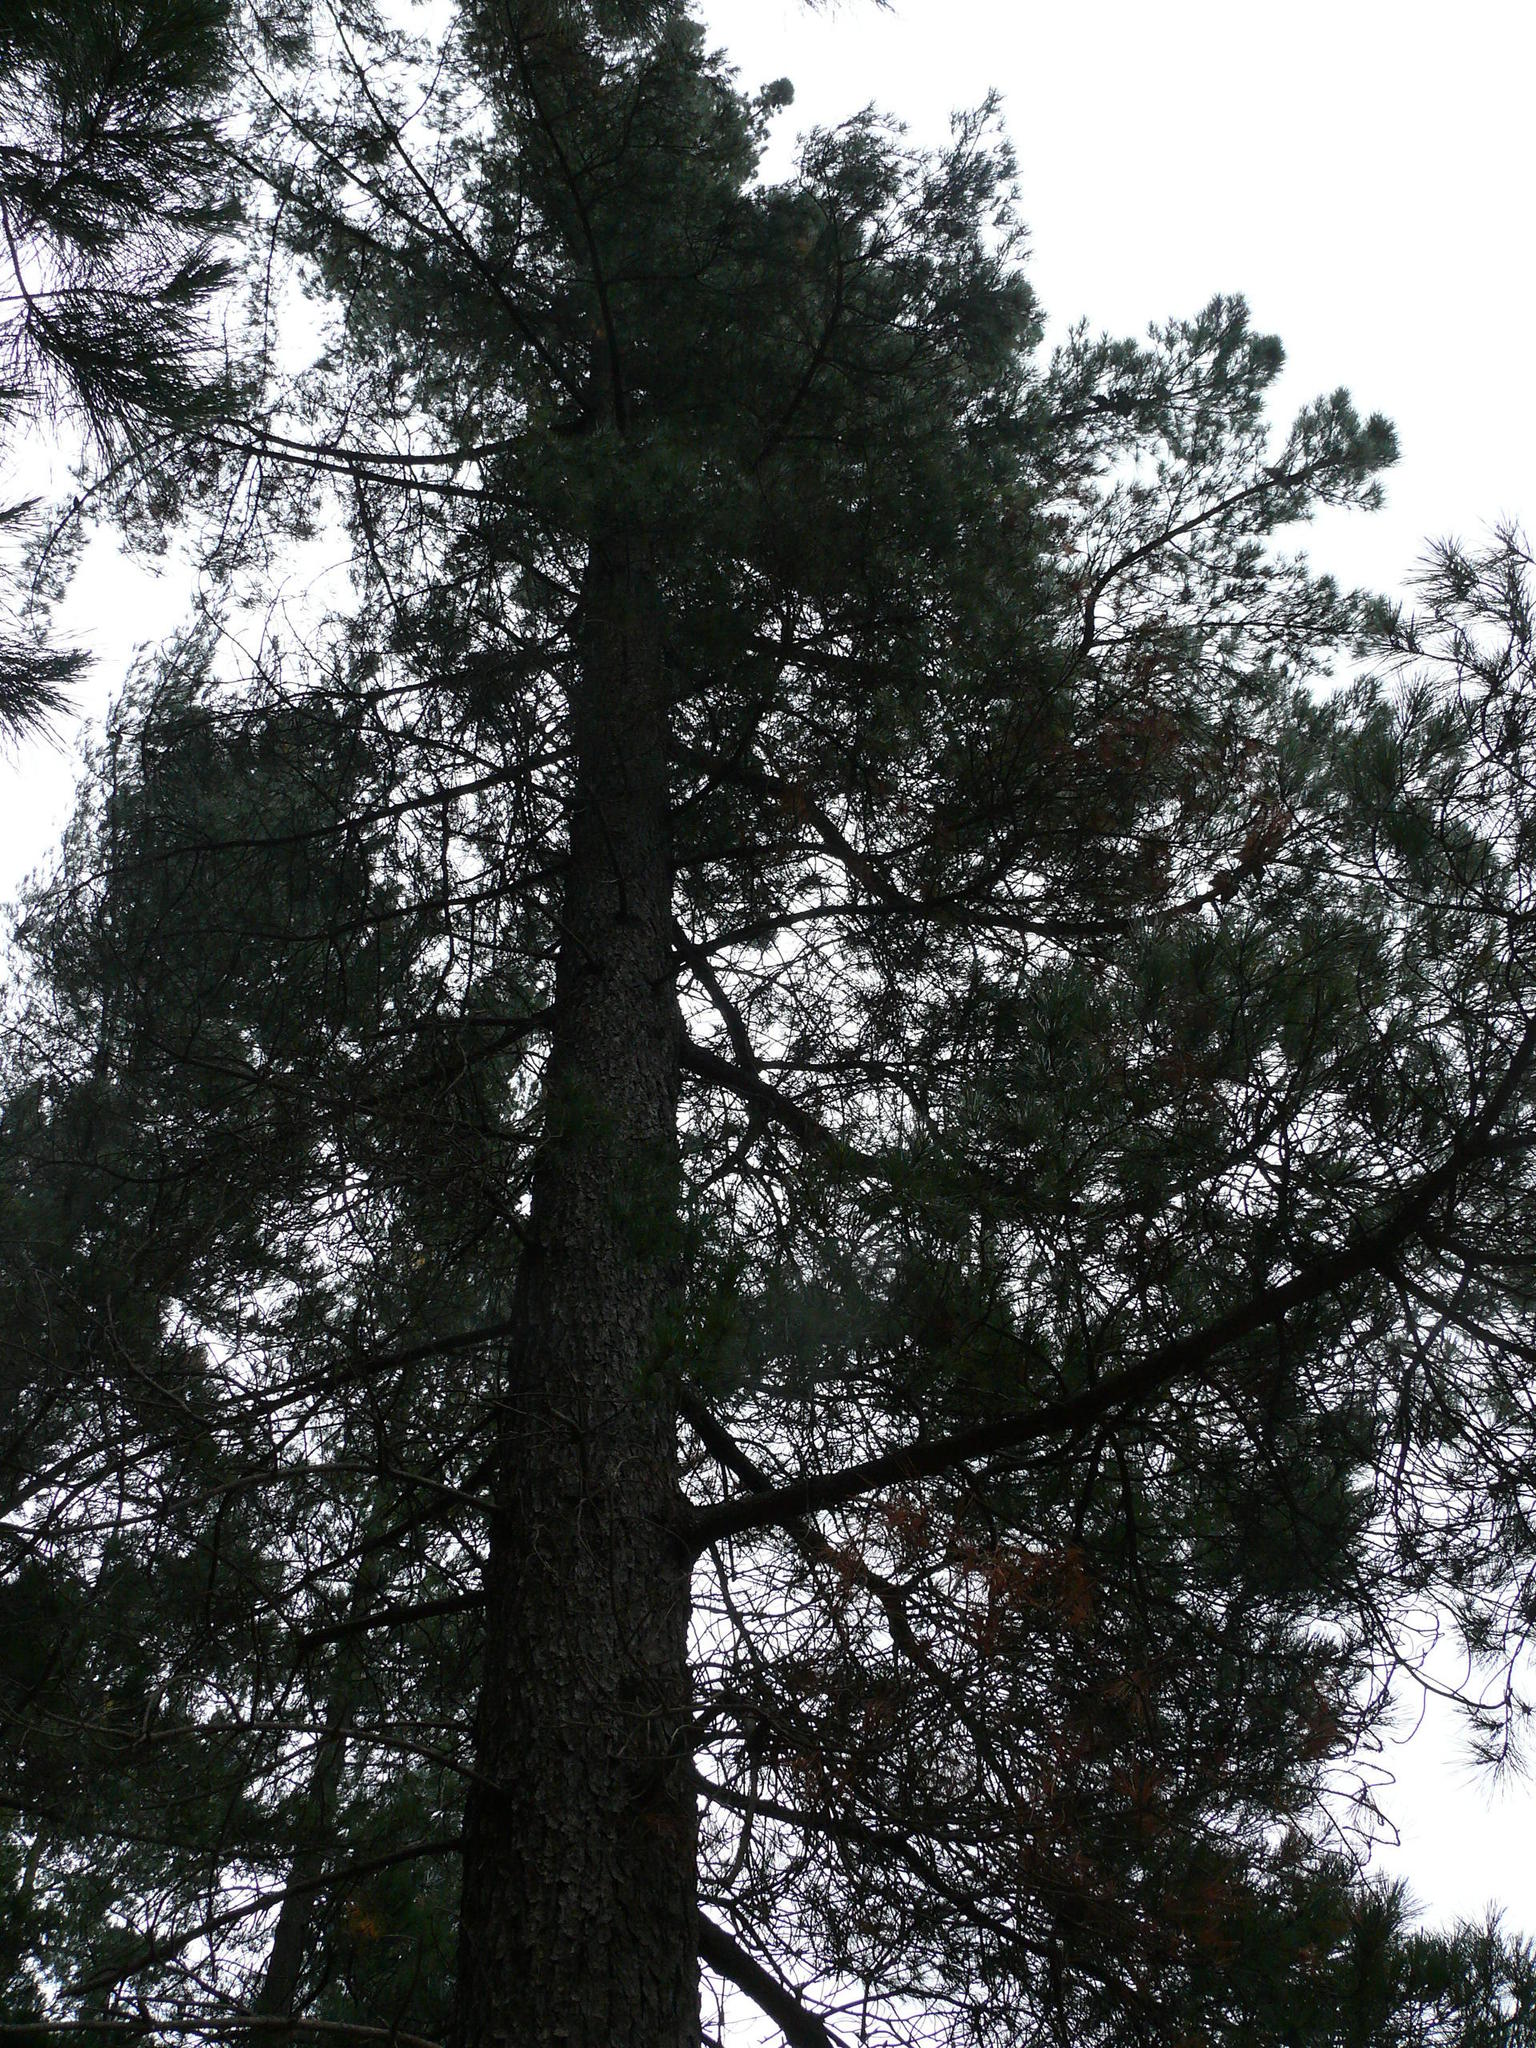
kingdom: Plantae
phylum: Tracheophyta
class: Pinopsida
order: Pinales
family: Pinaceae
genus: Pinus
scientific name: Pinus radiata
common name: Monterey pine
